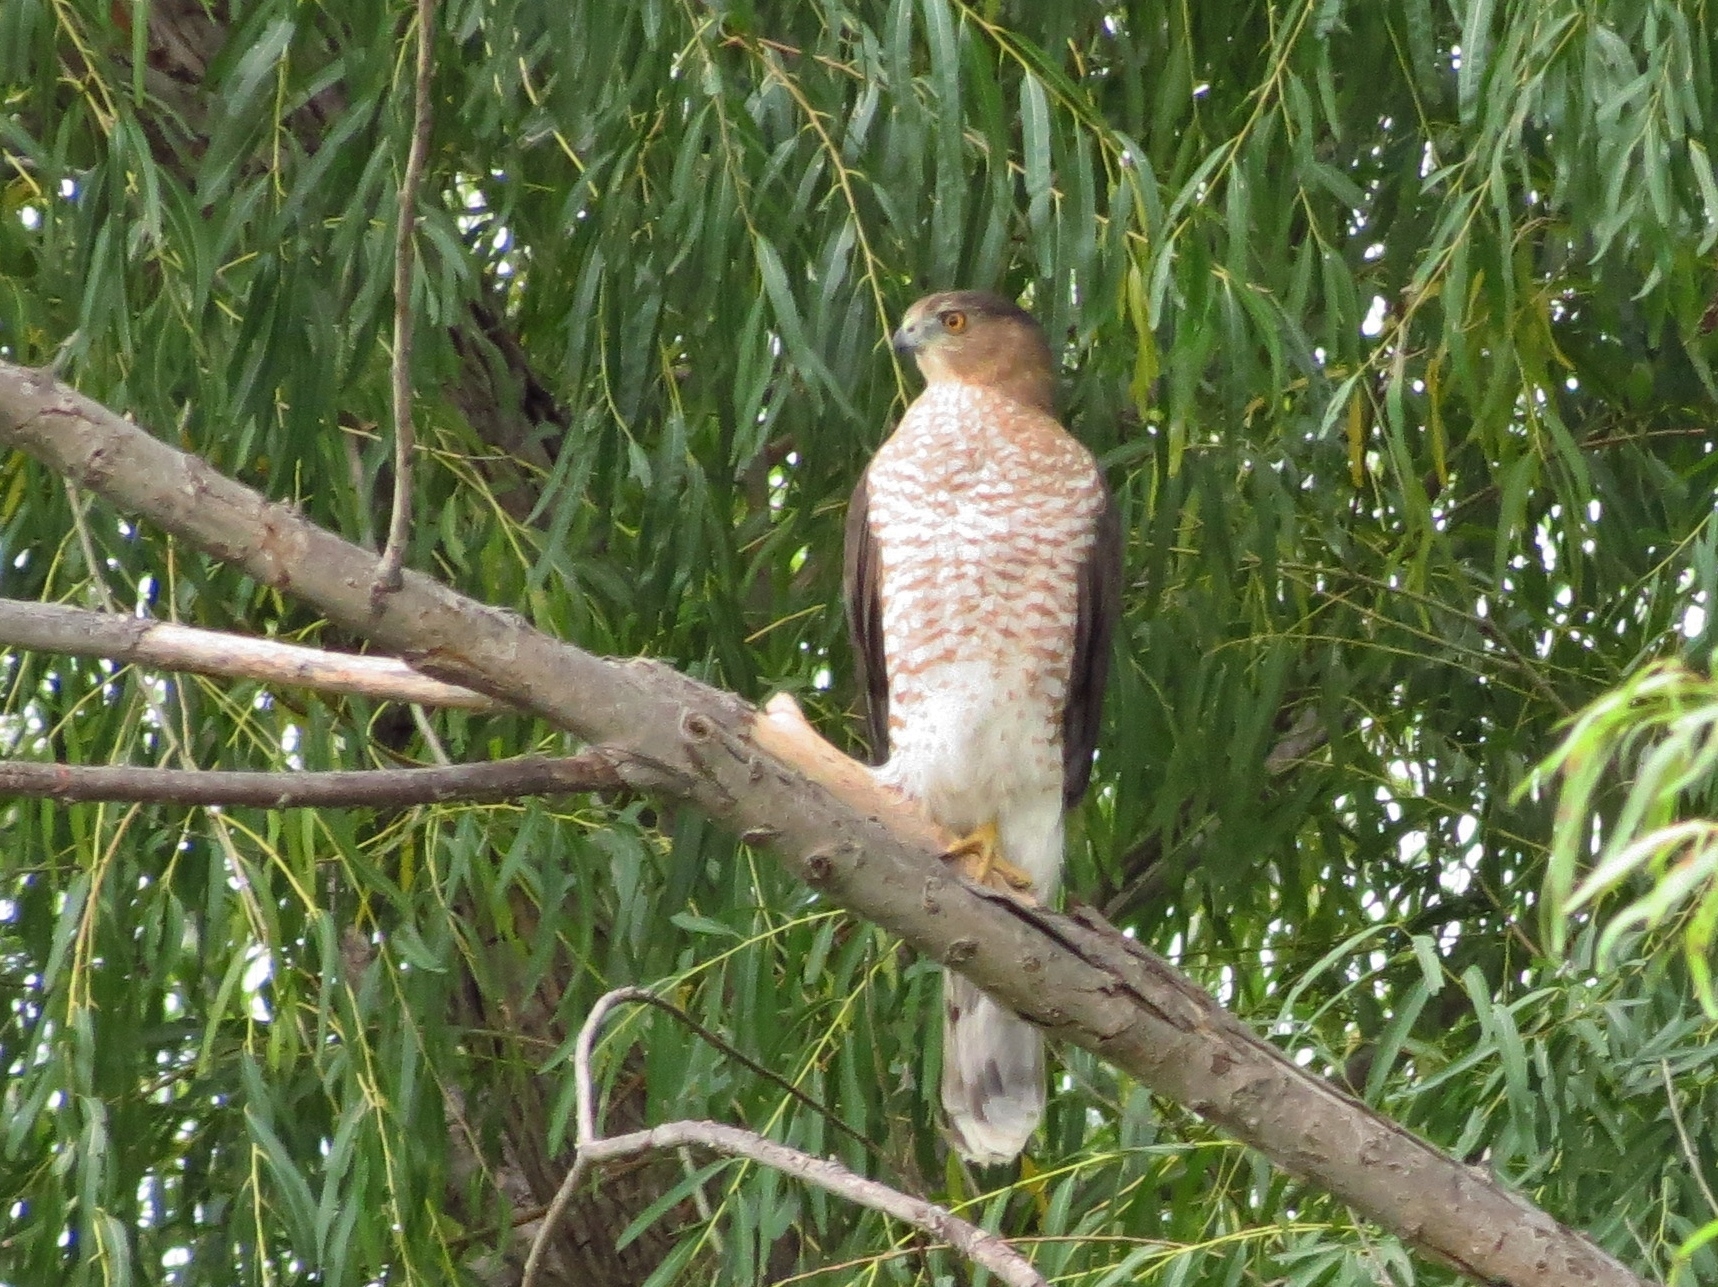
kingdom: Animalia
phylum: Chordata
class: Aves
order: Accipitriformes
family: Accipitridae
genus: Accipiter
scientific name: Accipiter cooperii
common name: Cooper's hawk
